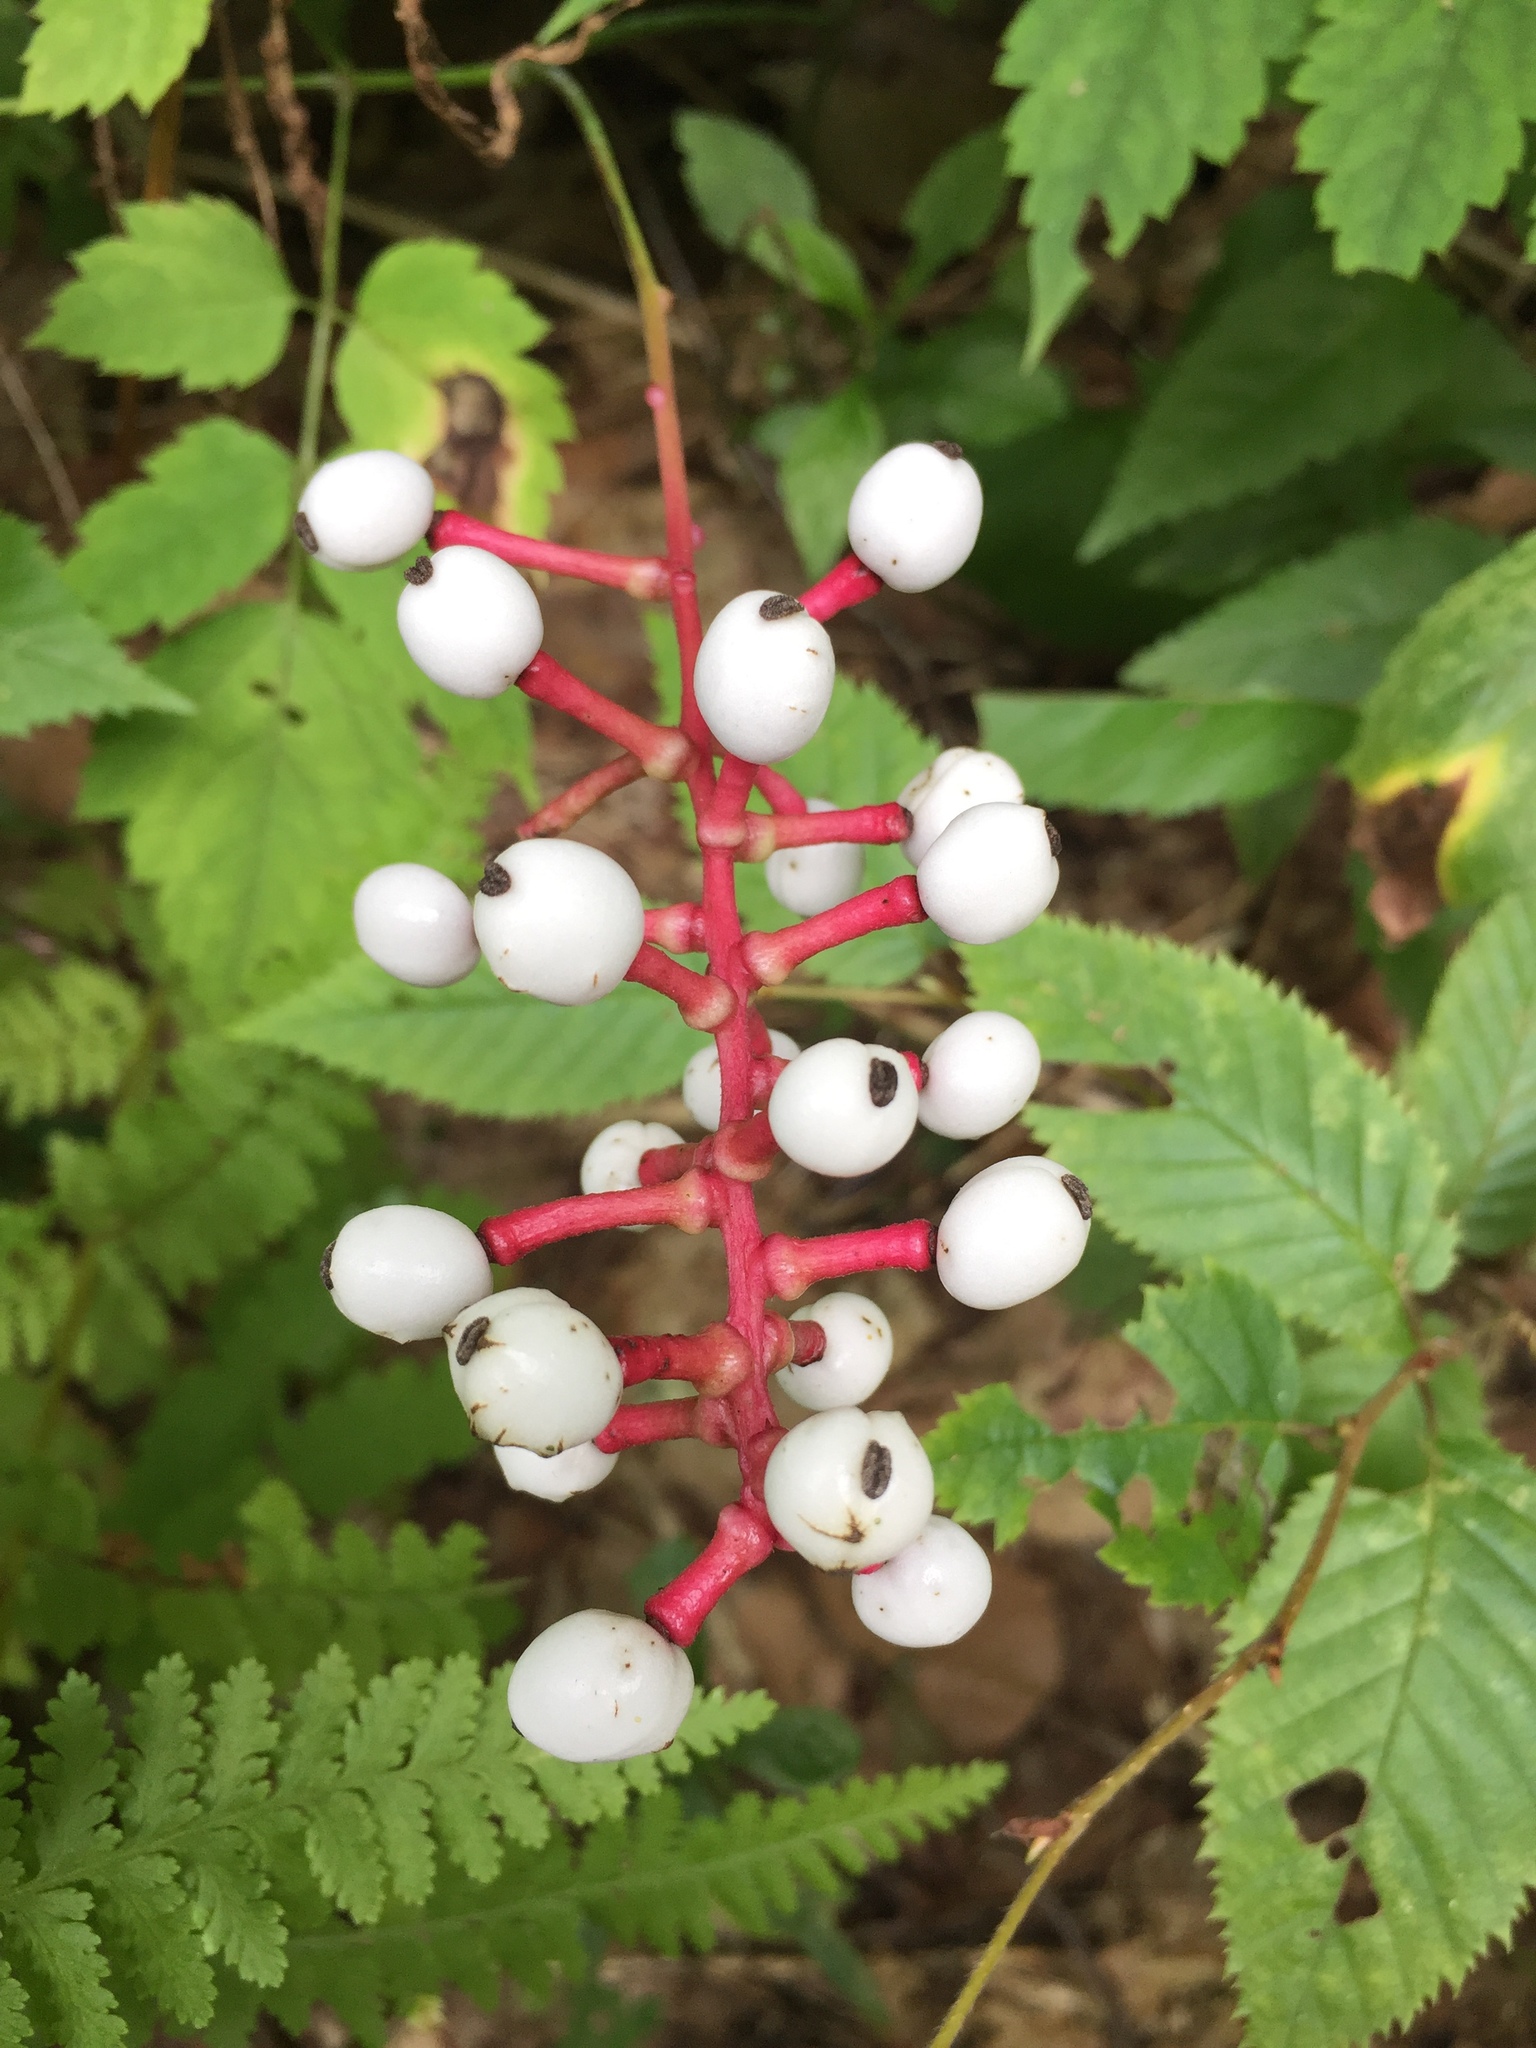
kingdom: Plantae
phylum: Tracheophyta
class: Magnoliopsida
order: Ranunculales
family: Ranunculaceae
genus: Actaea
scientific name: Actaea pachypoda
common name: Doll's-eyes
